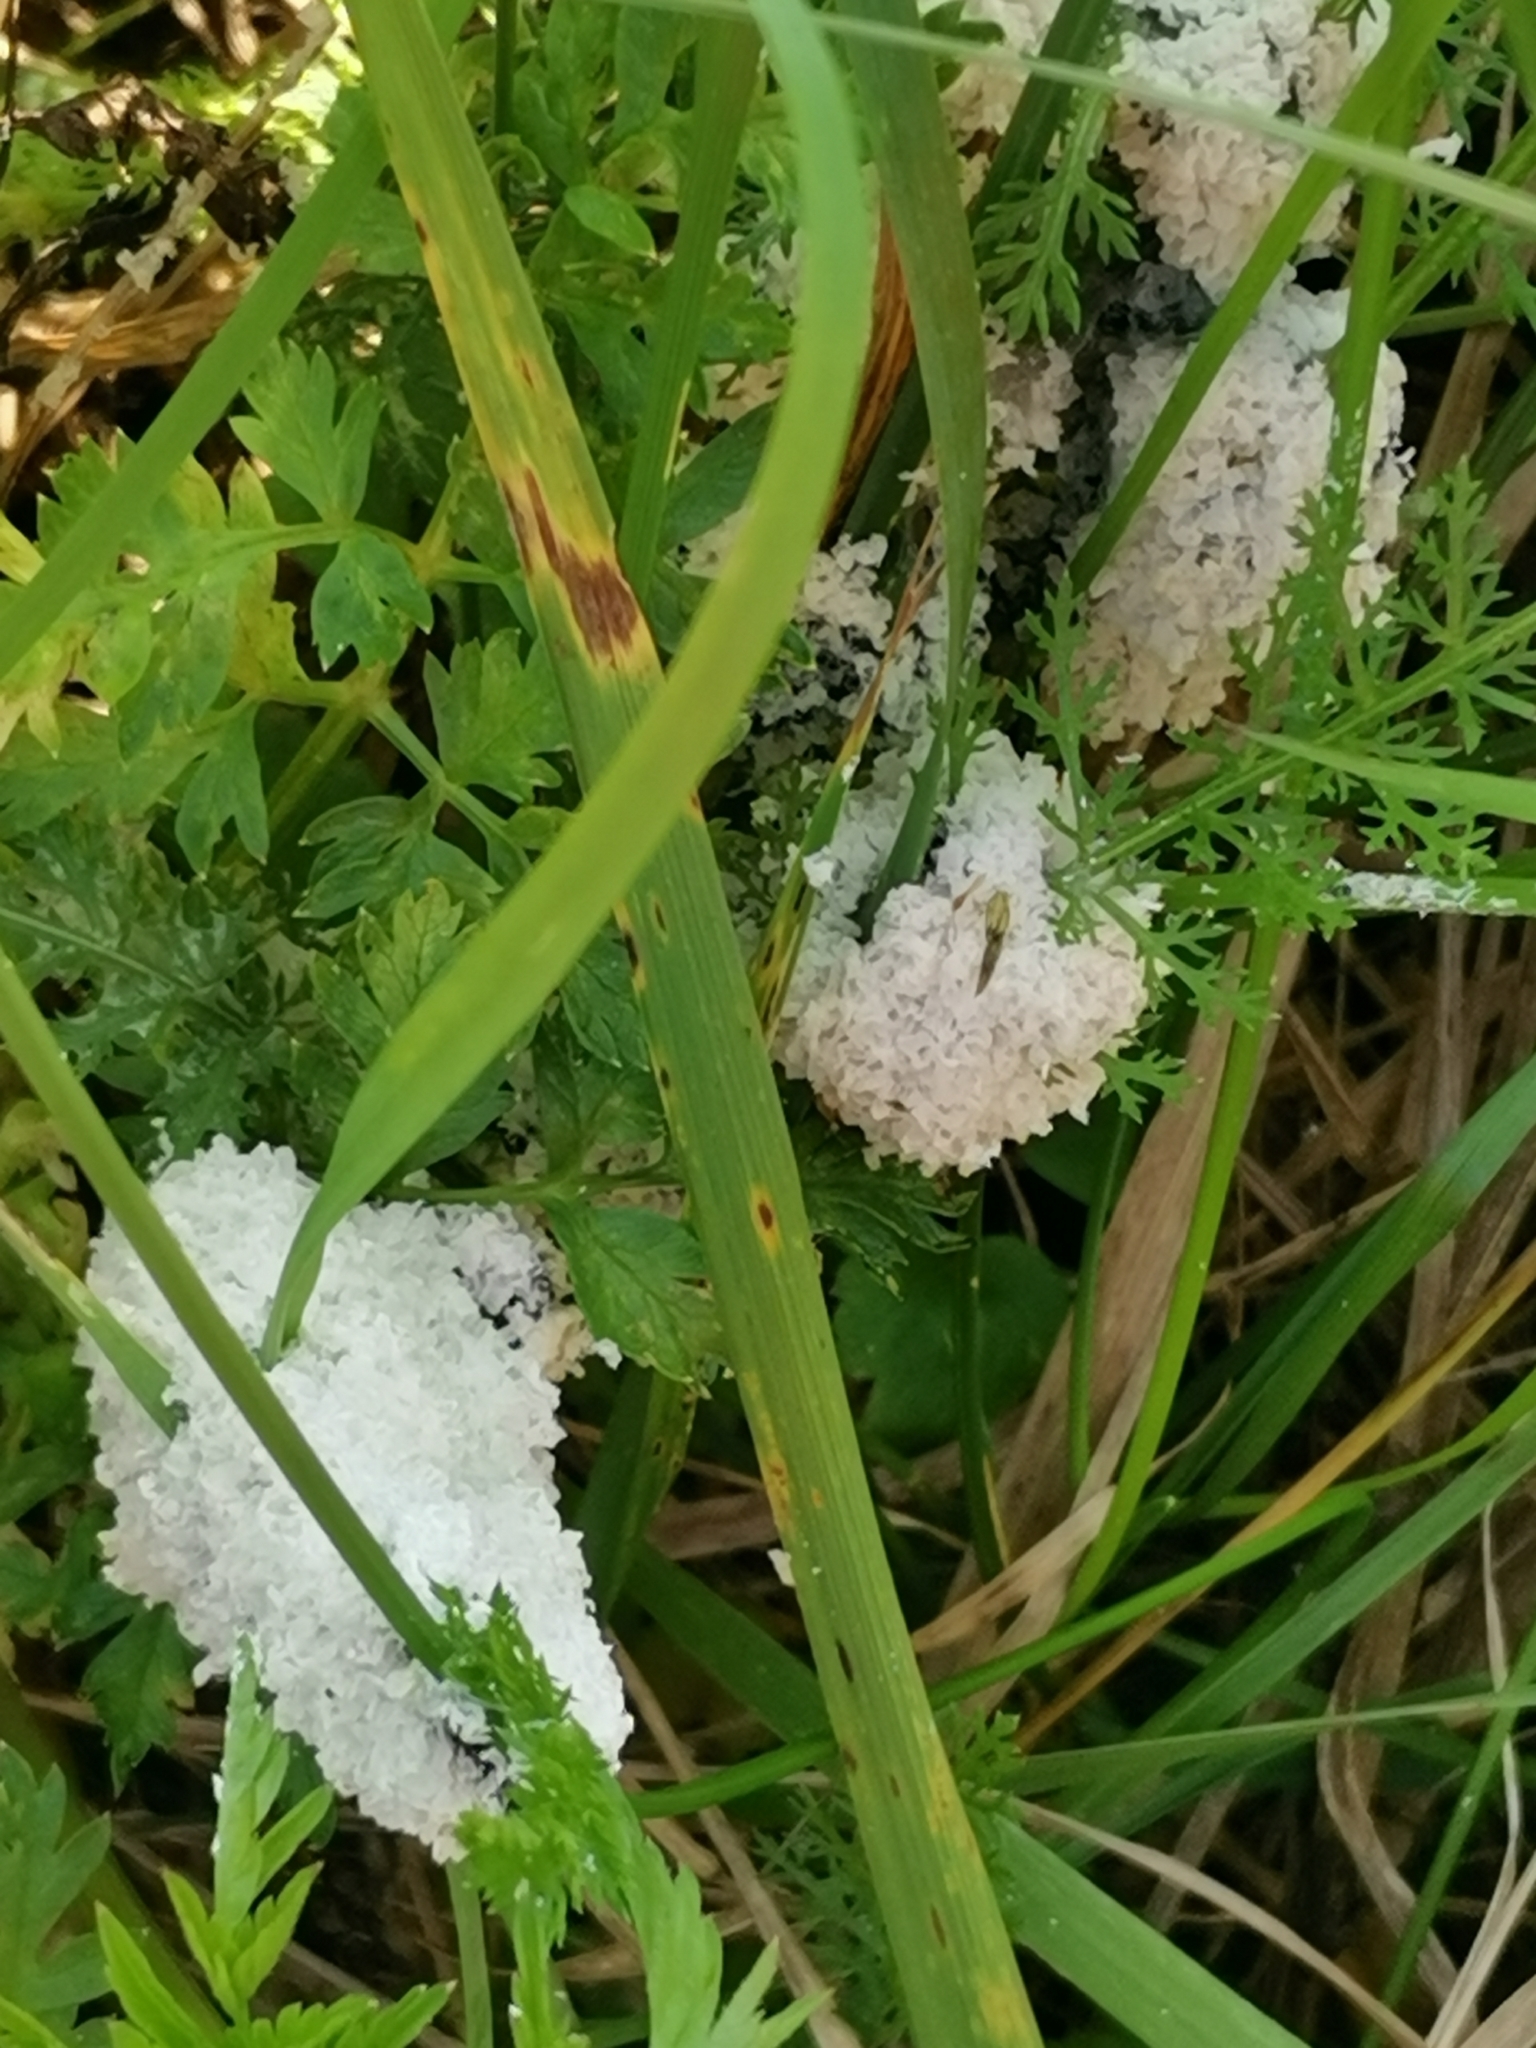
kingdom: Protozoa
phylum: Mycetozoa
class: Myxomycetes
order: Physarales
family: Physaraceae
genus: Didymium
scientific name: Didymium
